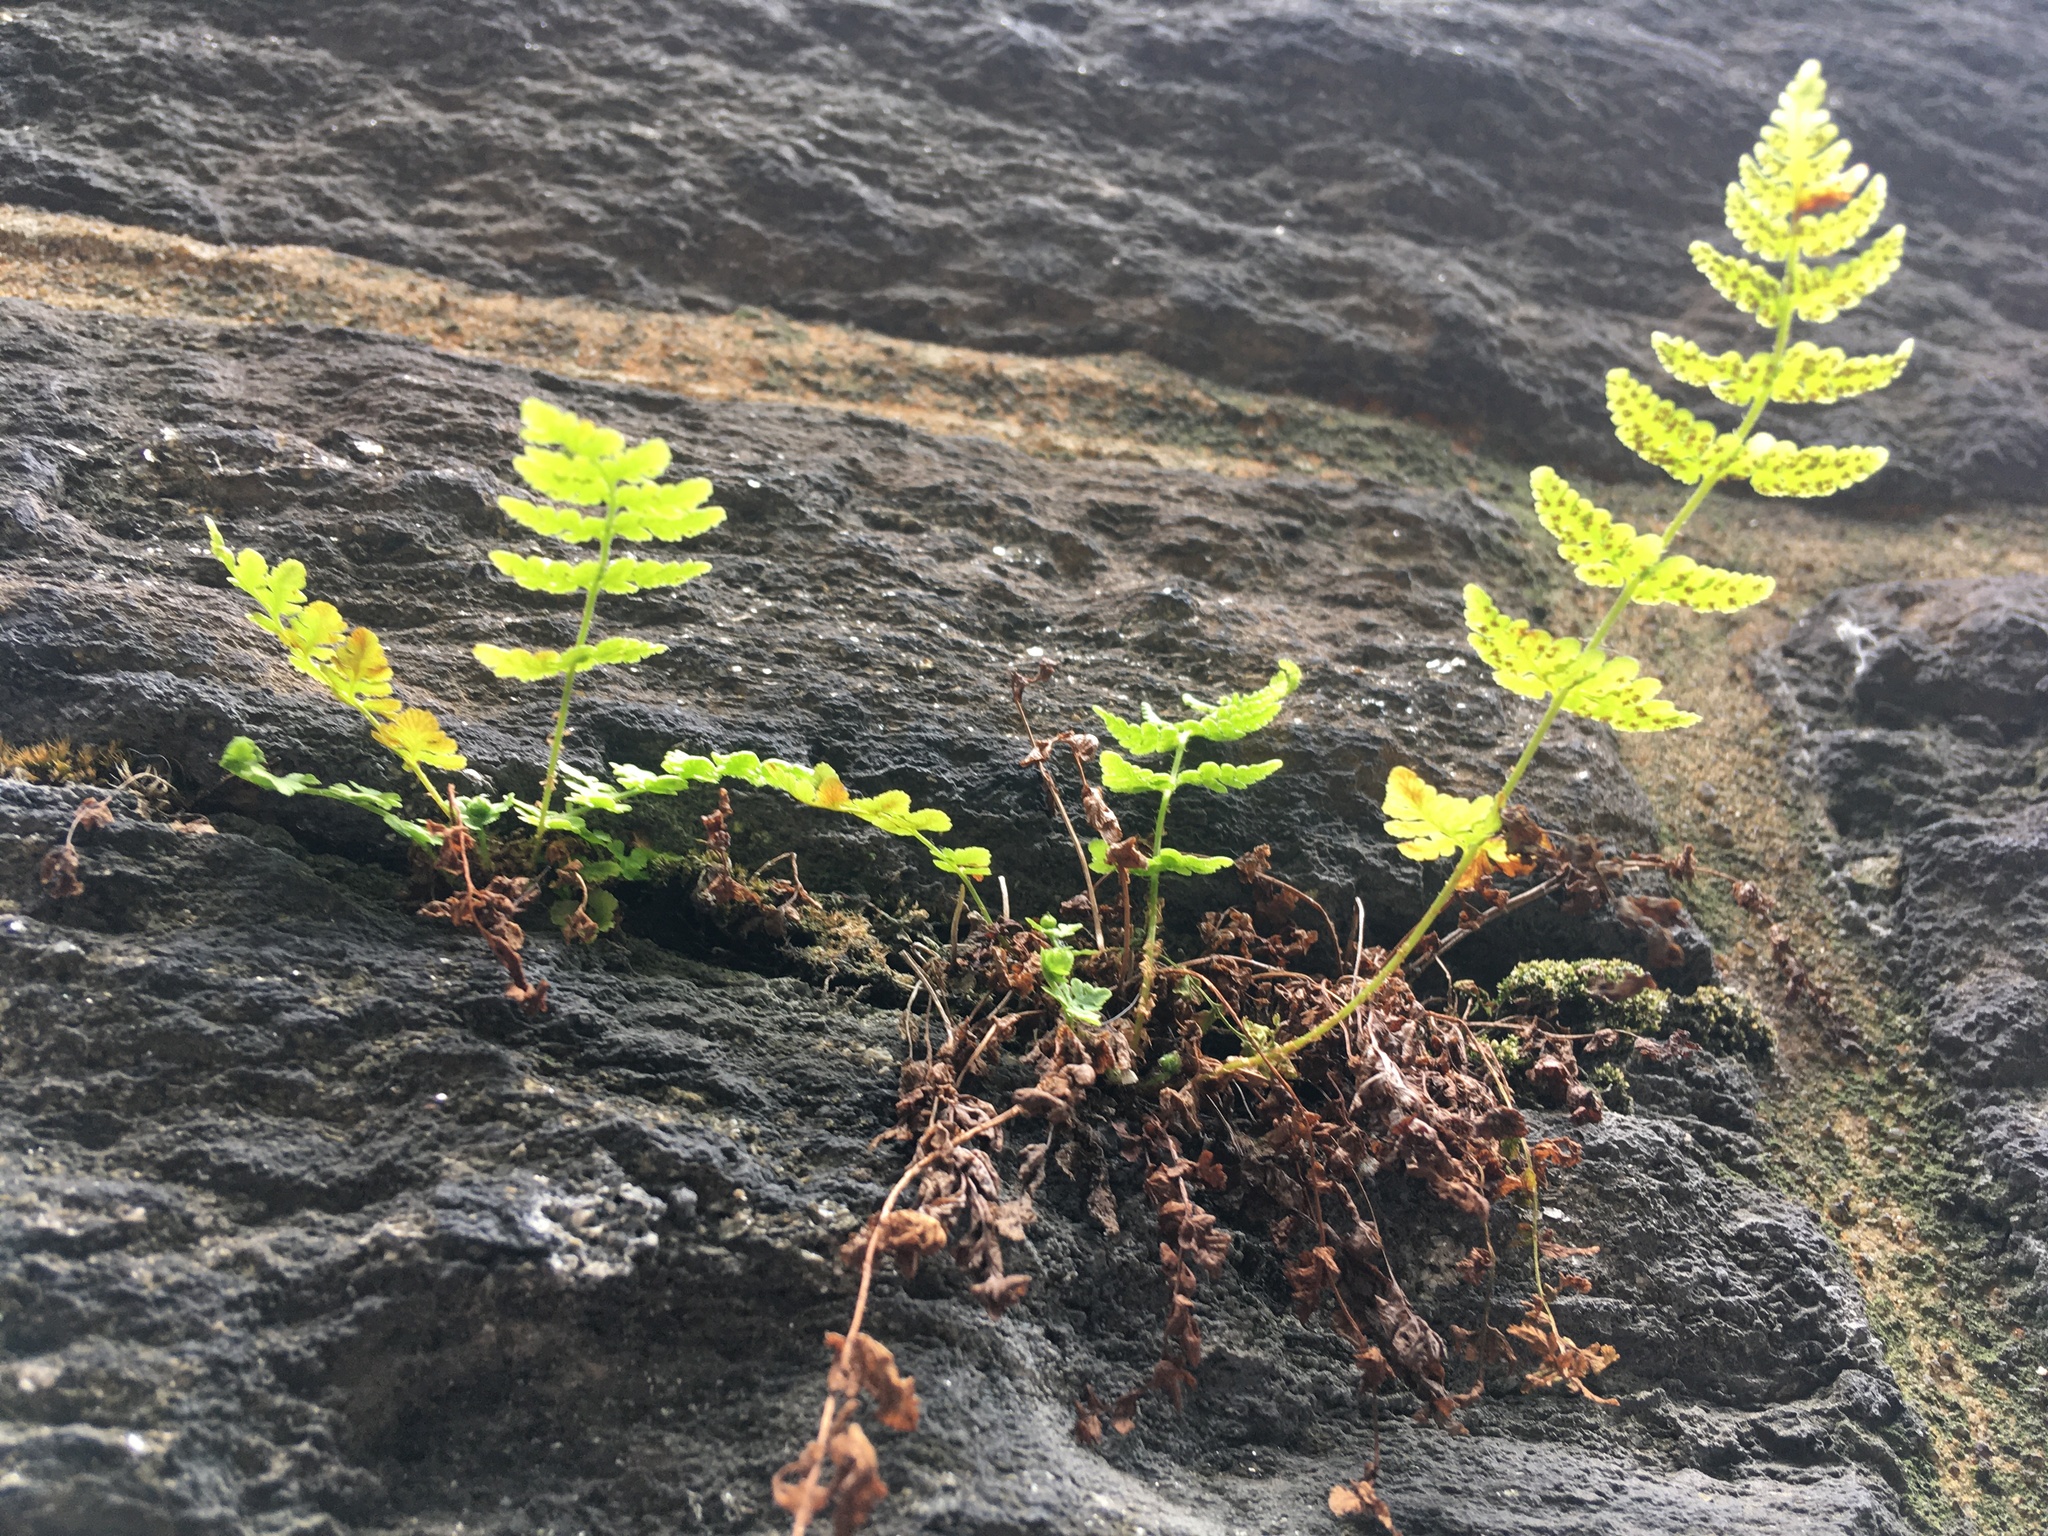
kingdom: Plantae
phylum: Tracheophyta
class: Polypodiopsida
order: Polypodiales
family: Woodsiaceae
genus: Physematium
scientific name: Physematium obtusum
